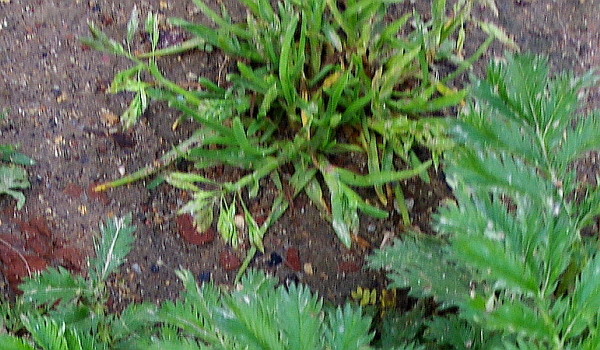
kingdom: Plantae
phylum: Tracheophyta
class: Liliopsida
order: Poales
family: Poaceae
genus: Poa
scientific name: Poa annua
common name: Annual bluegrass
